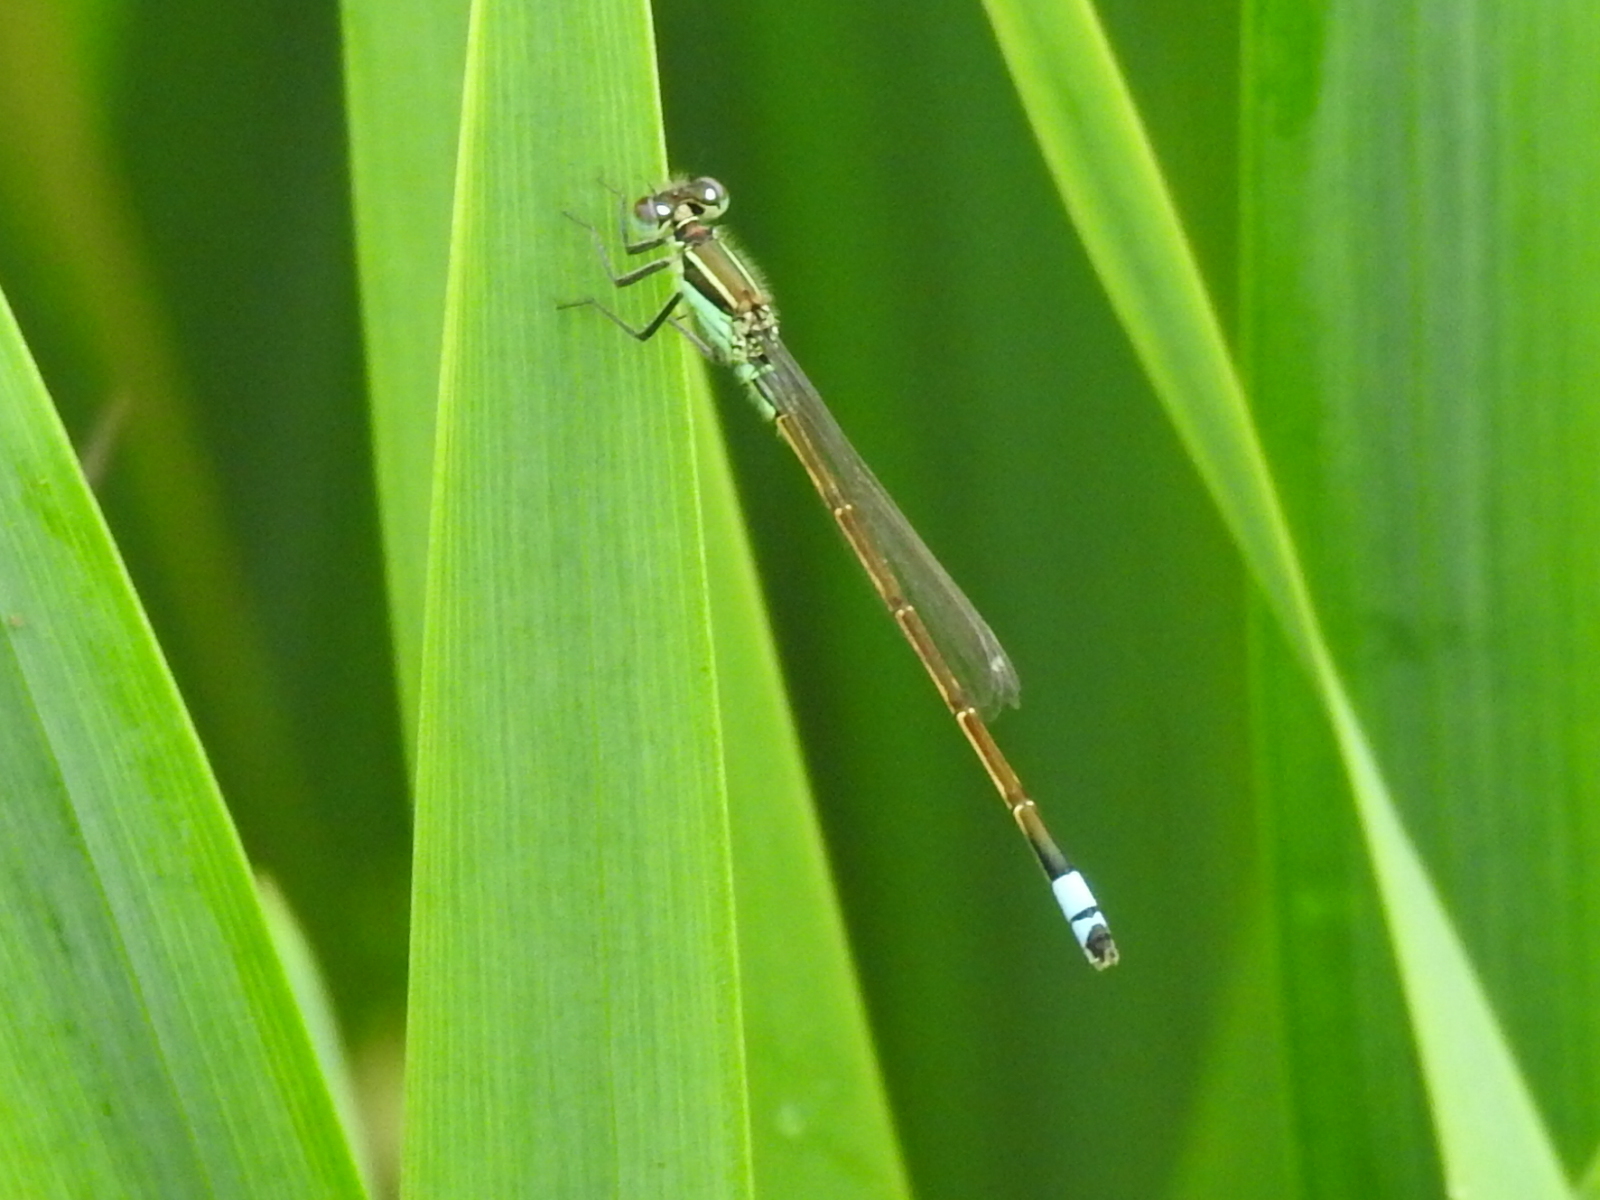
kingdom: Animalia
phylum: Arthropoda
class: Insecta
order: Odonata
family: Coenagrionidae
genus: Ischnura
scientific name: Ischnura ramburii
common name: Rambur's forktail
